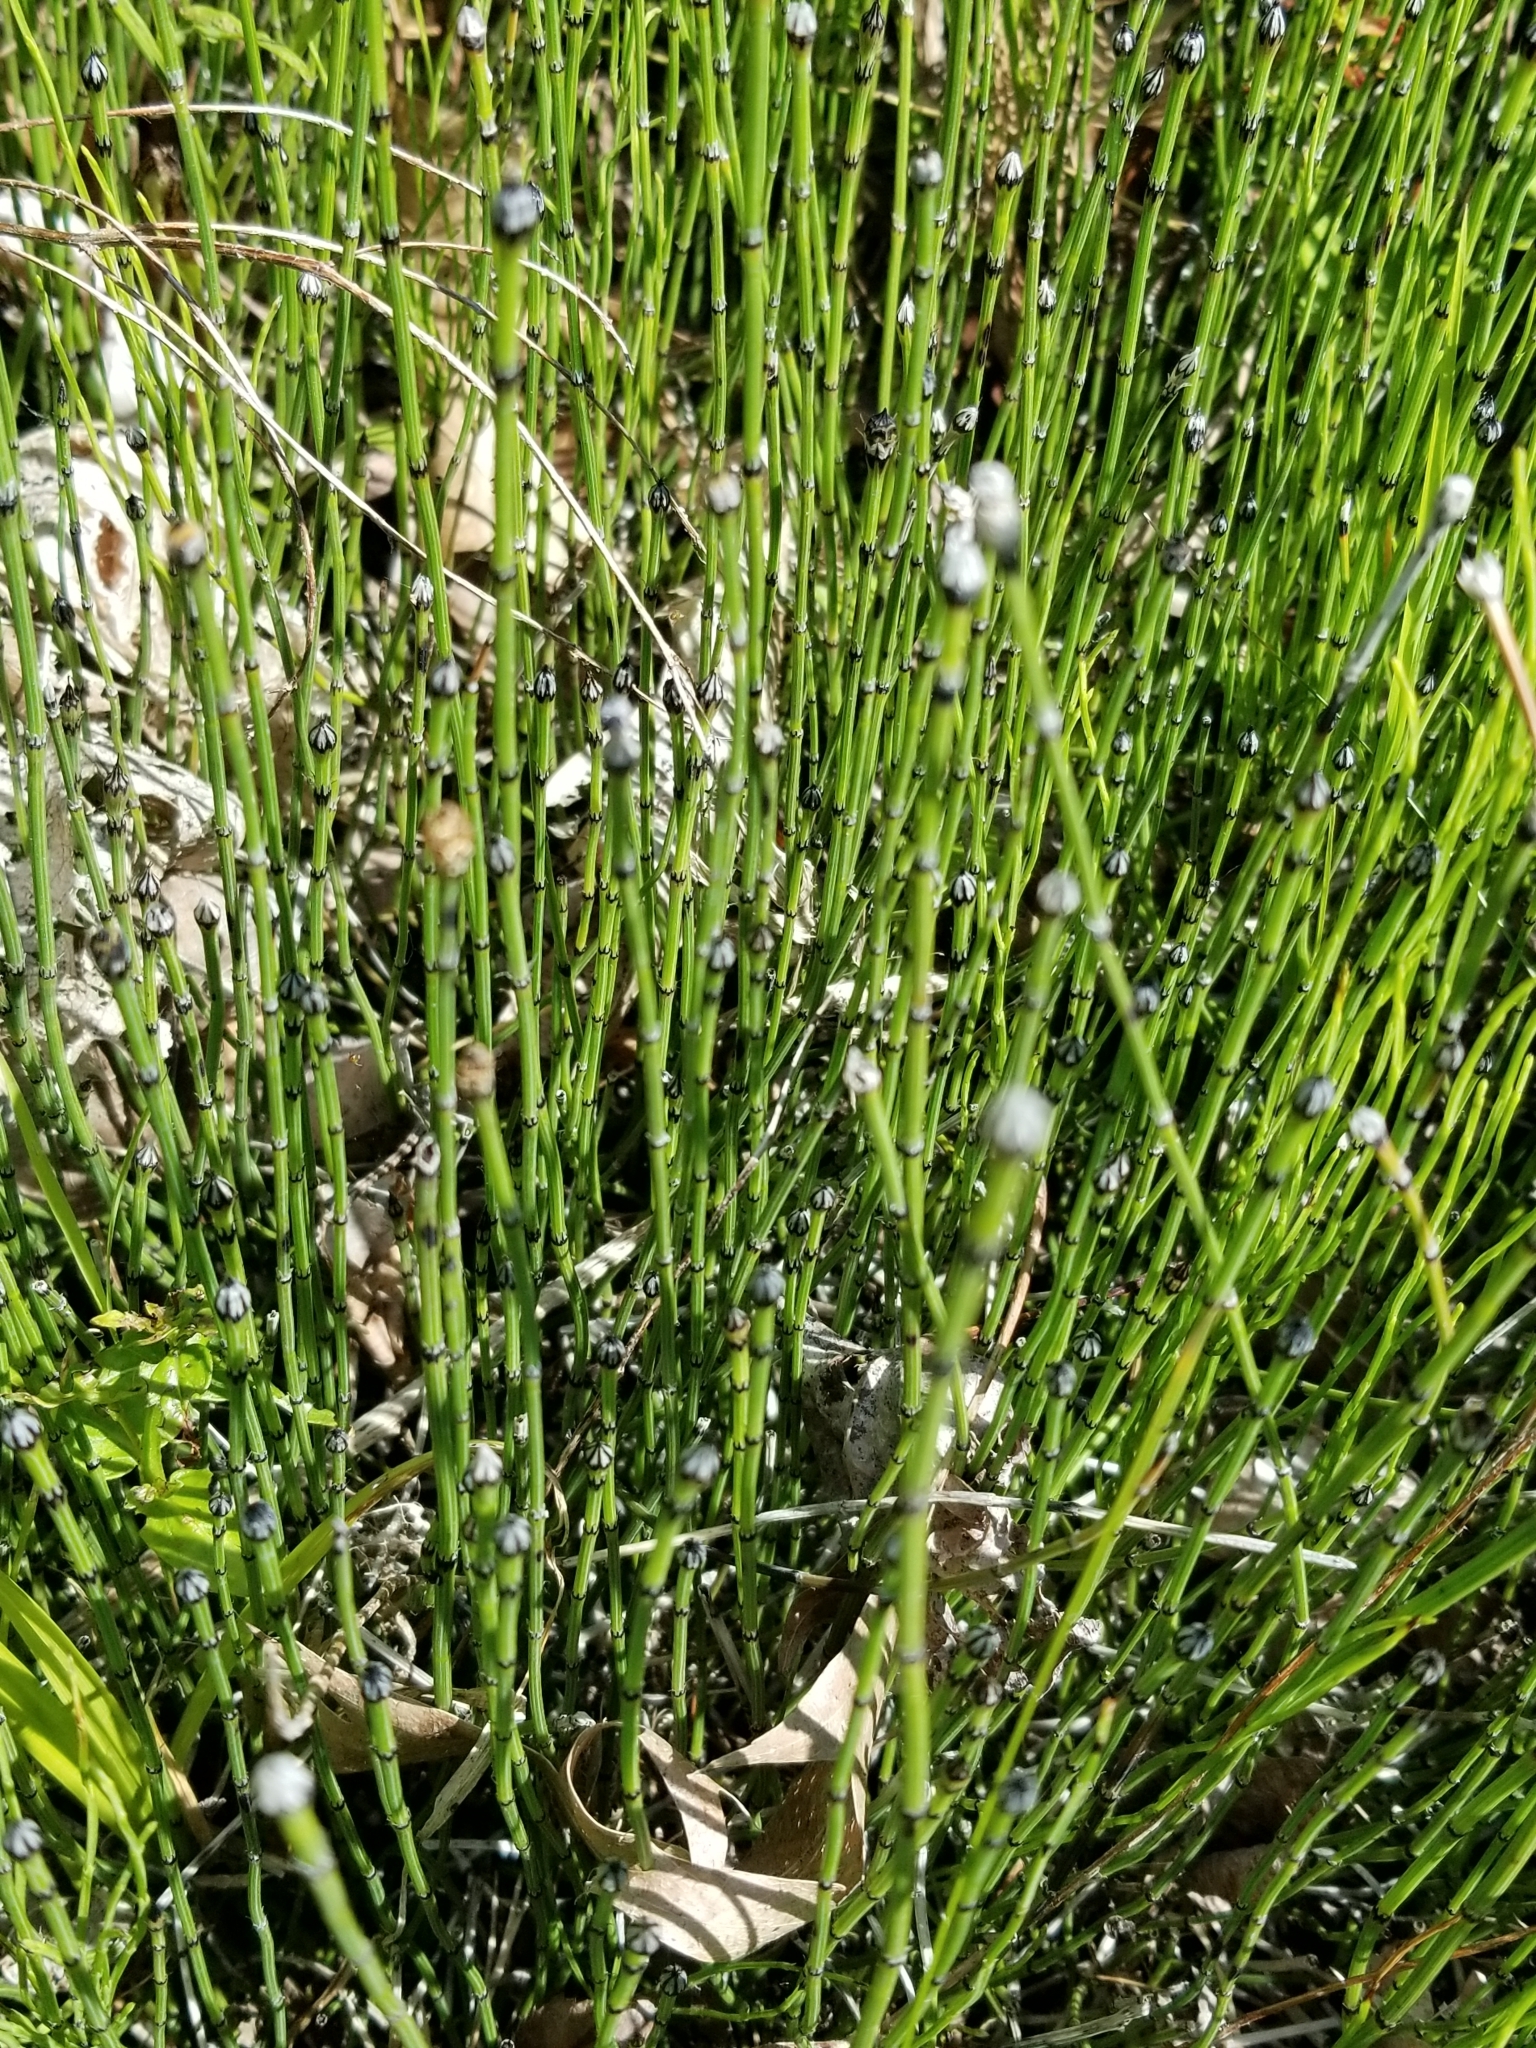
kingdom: Plantae
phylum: Tracheophyta
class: Polypodiopsida
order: Equisetales
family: Equisetaceae
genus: Equisetum
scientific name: Equisetum variegatum
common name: Variegated horsetail
